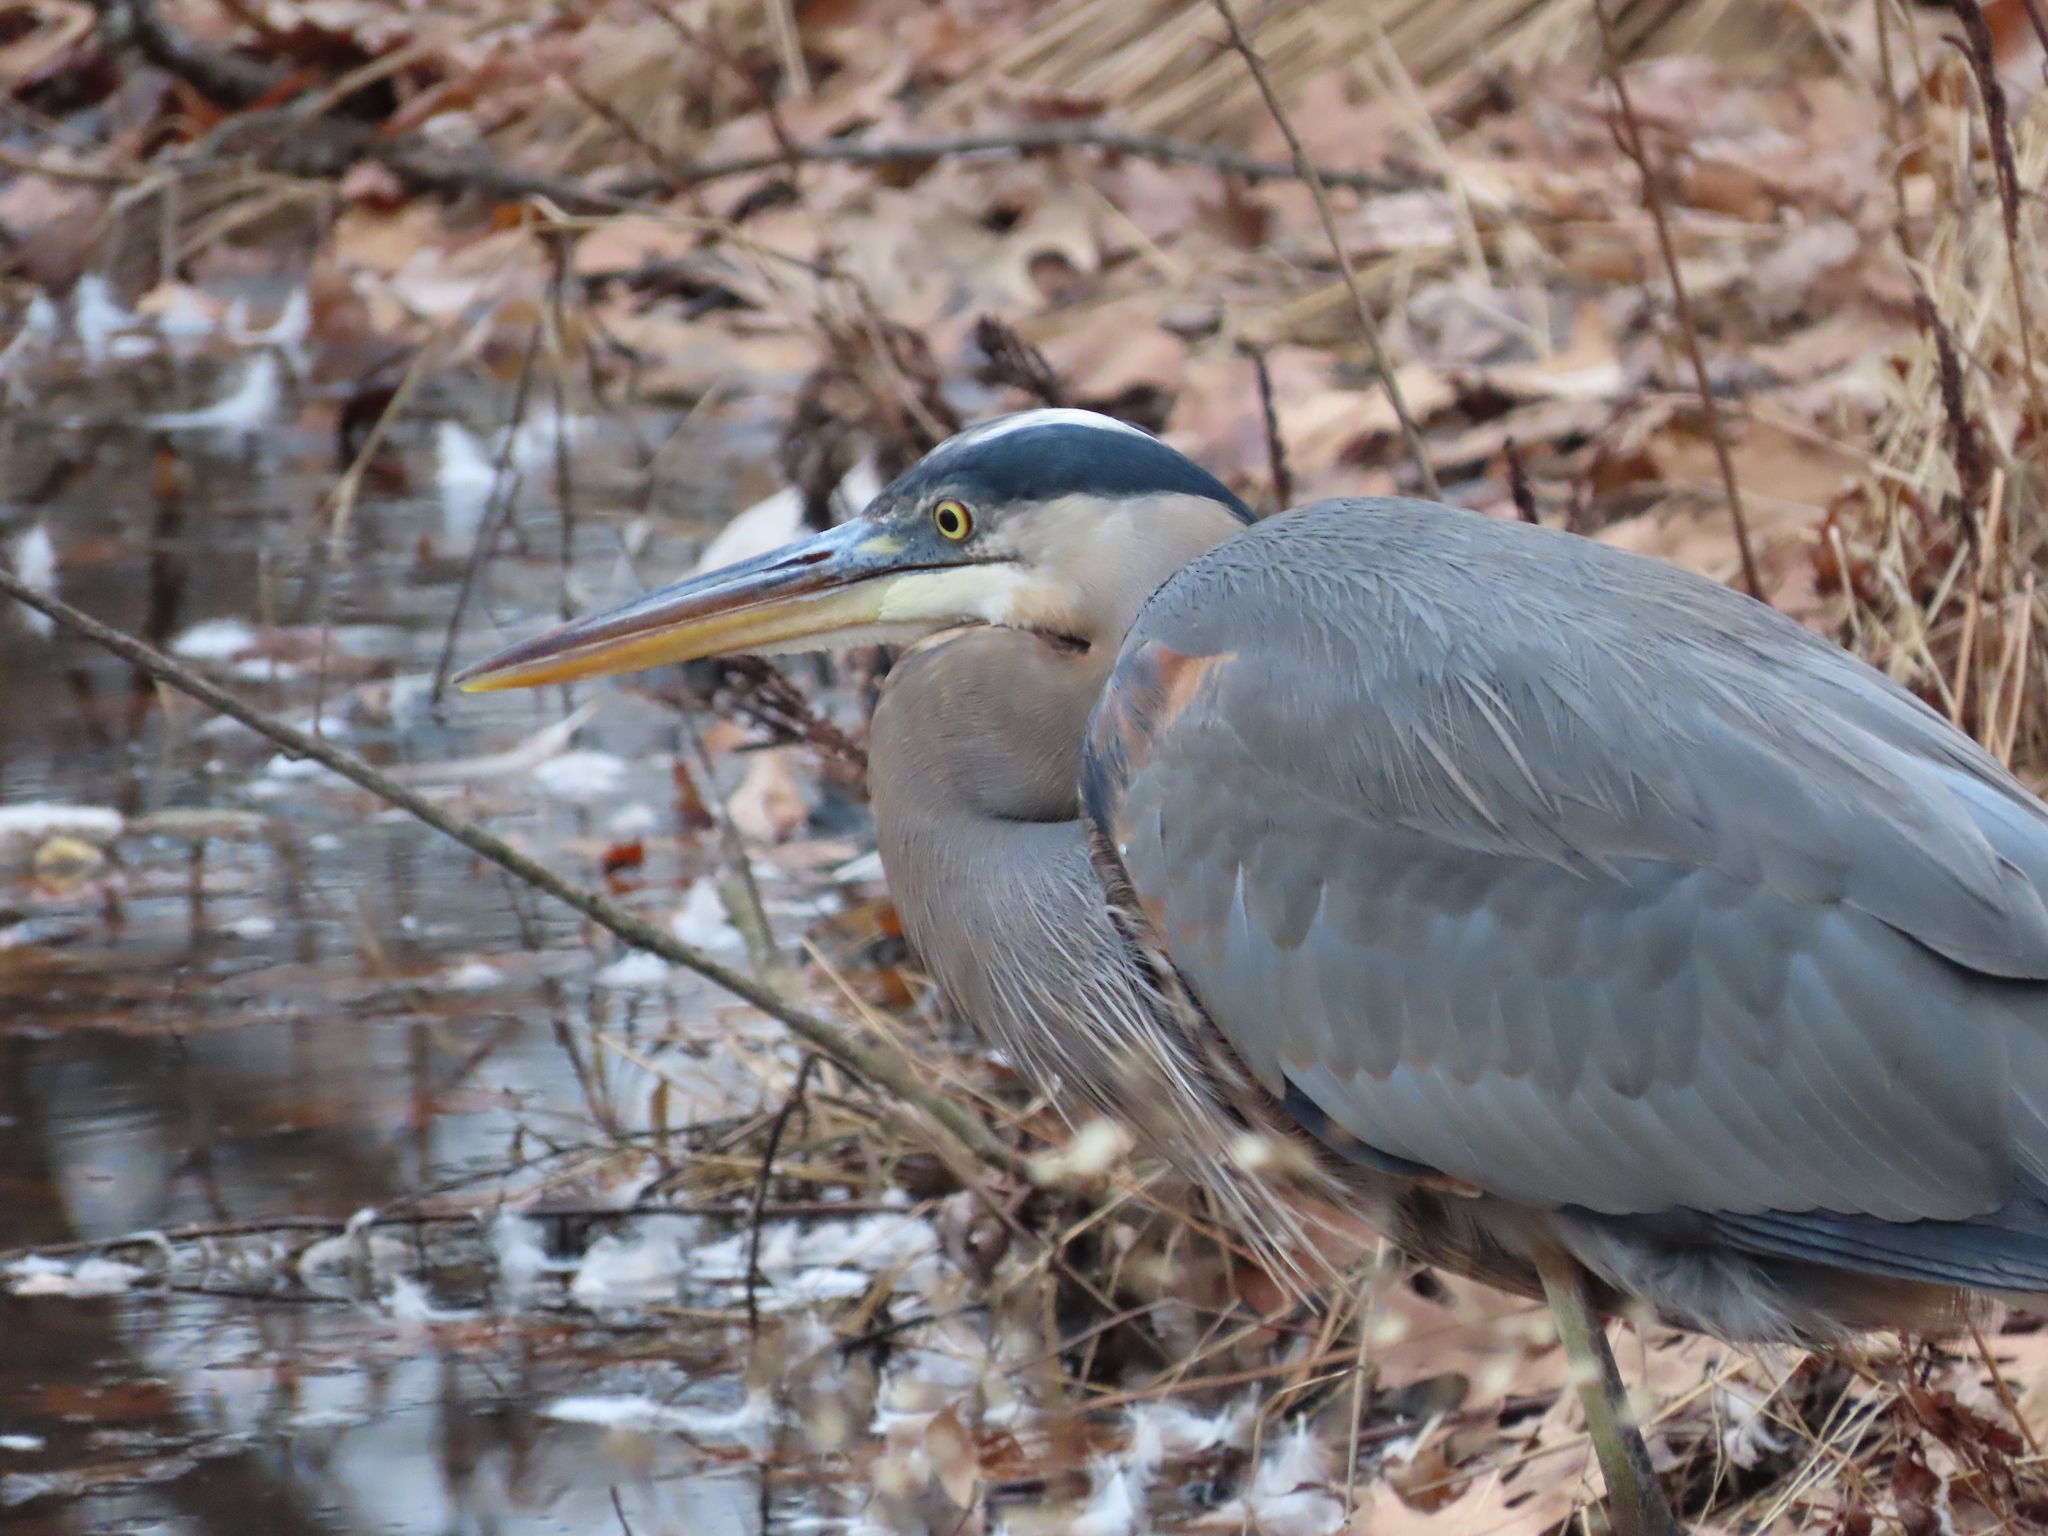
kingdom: Animalia
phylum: Chordata
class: Aves
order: Pelecaniformes
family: Ardeidae
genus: Ardea
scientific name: Ardea herodias
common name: Great blue heron
